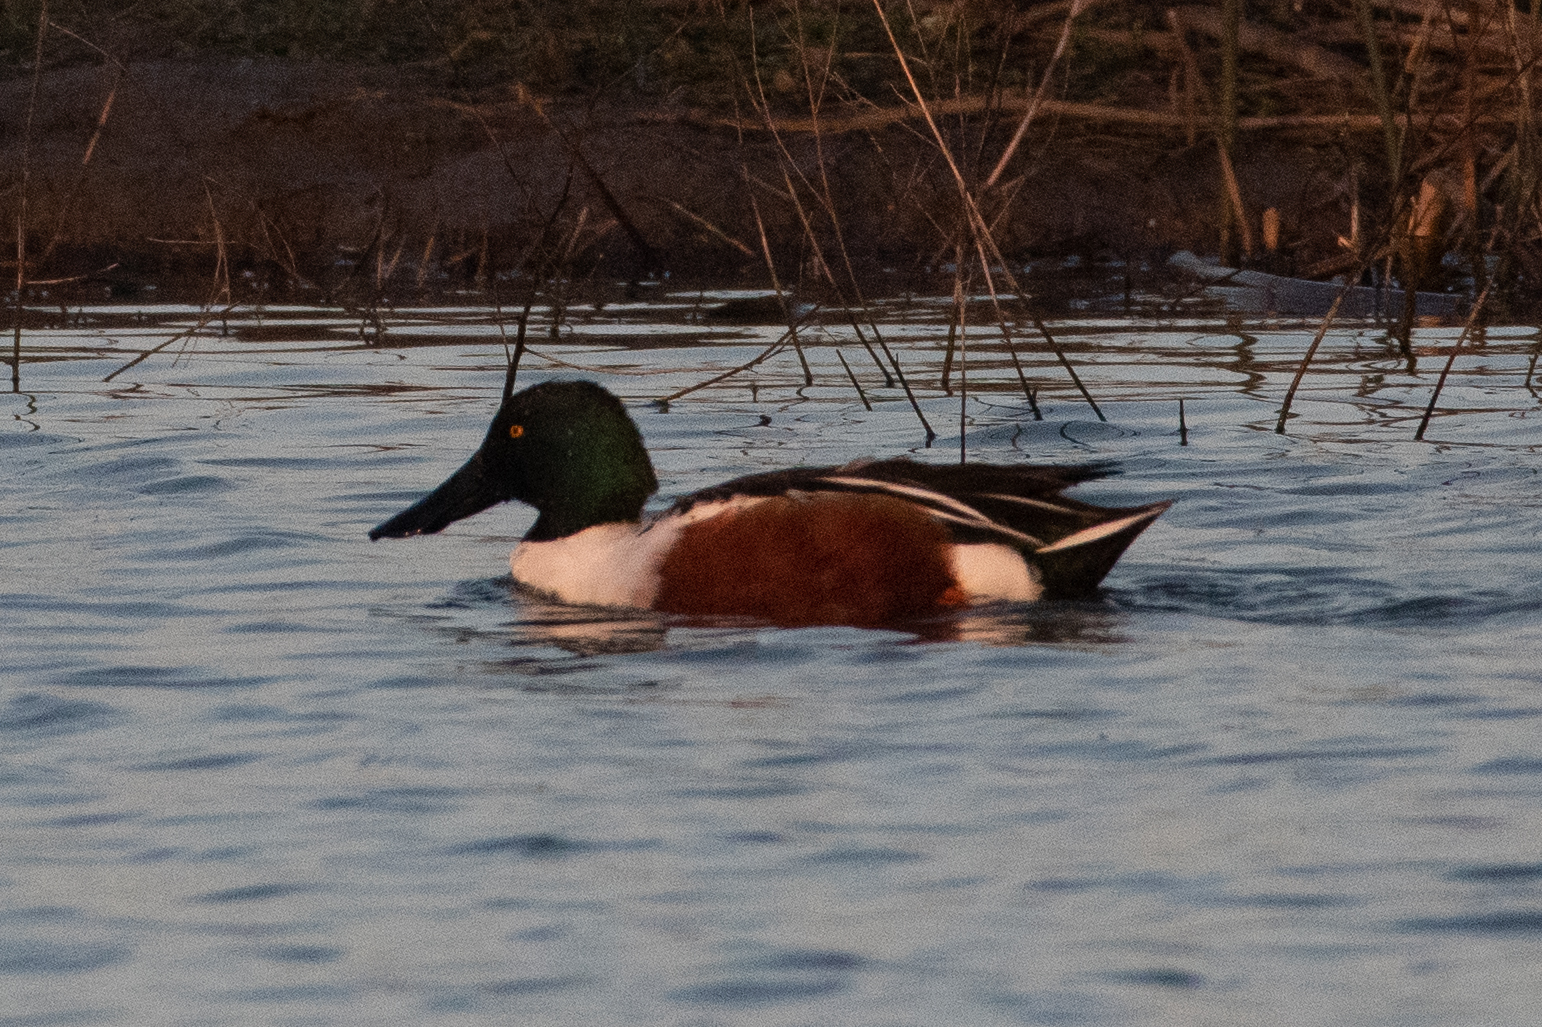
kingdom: Animalia
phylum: Chordata
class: Aves
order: Anseriformes
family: Anatidae
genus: Spatula
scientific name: Spatula clypeata
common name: Northern shoveler
